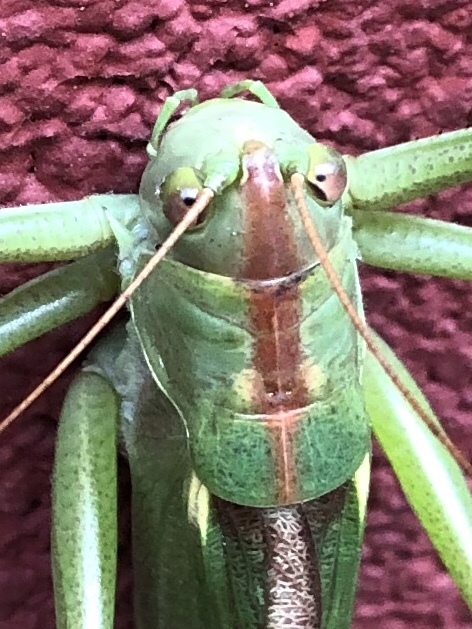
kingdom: Animalia
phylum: Arthropoda
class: Insecta
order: Orthoptera
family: Tettigoniidae
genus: Tettigonia
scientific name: Tettigonia viridissima
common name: Great green bush-cricket
